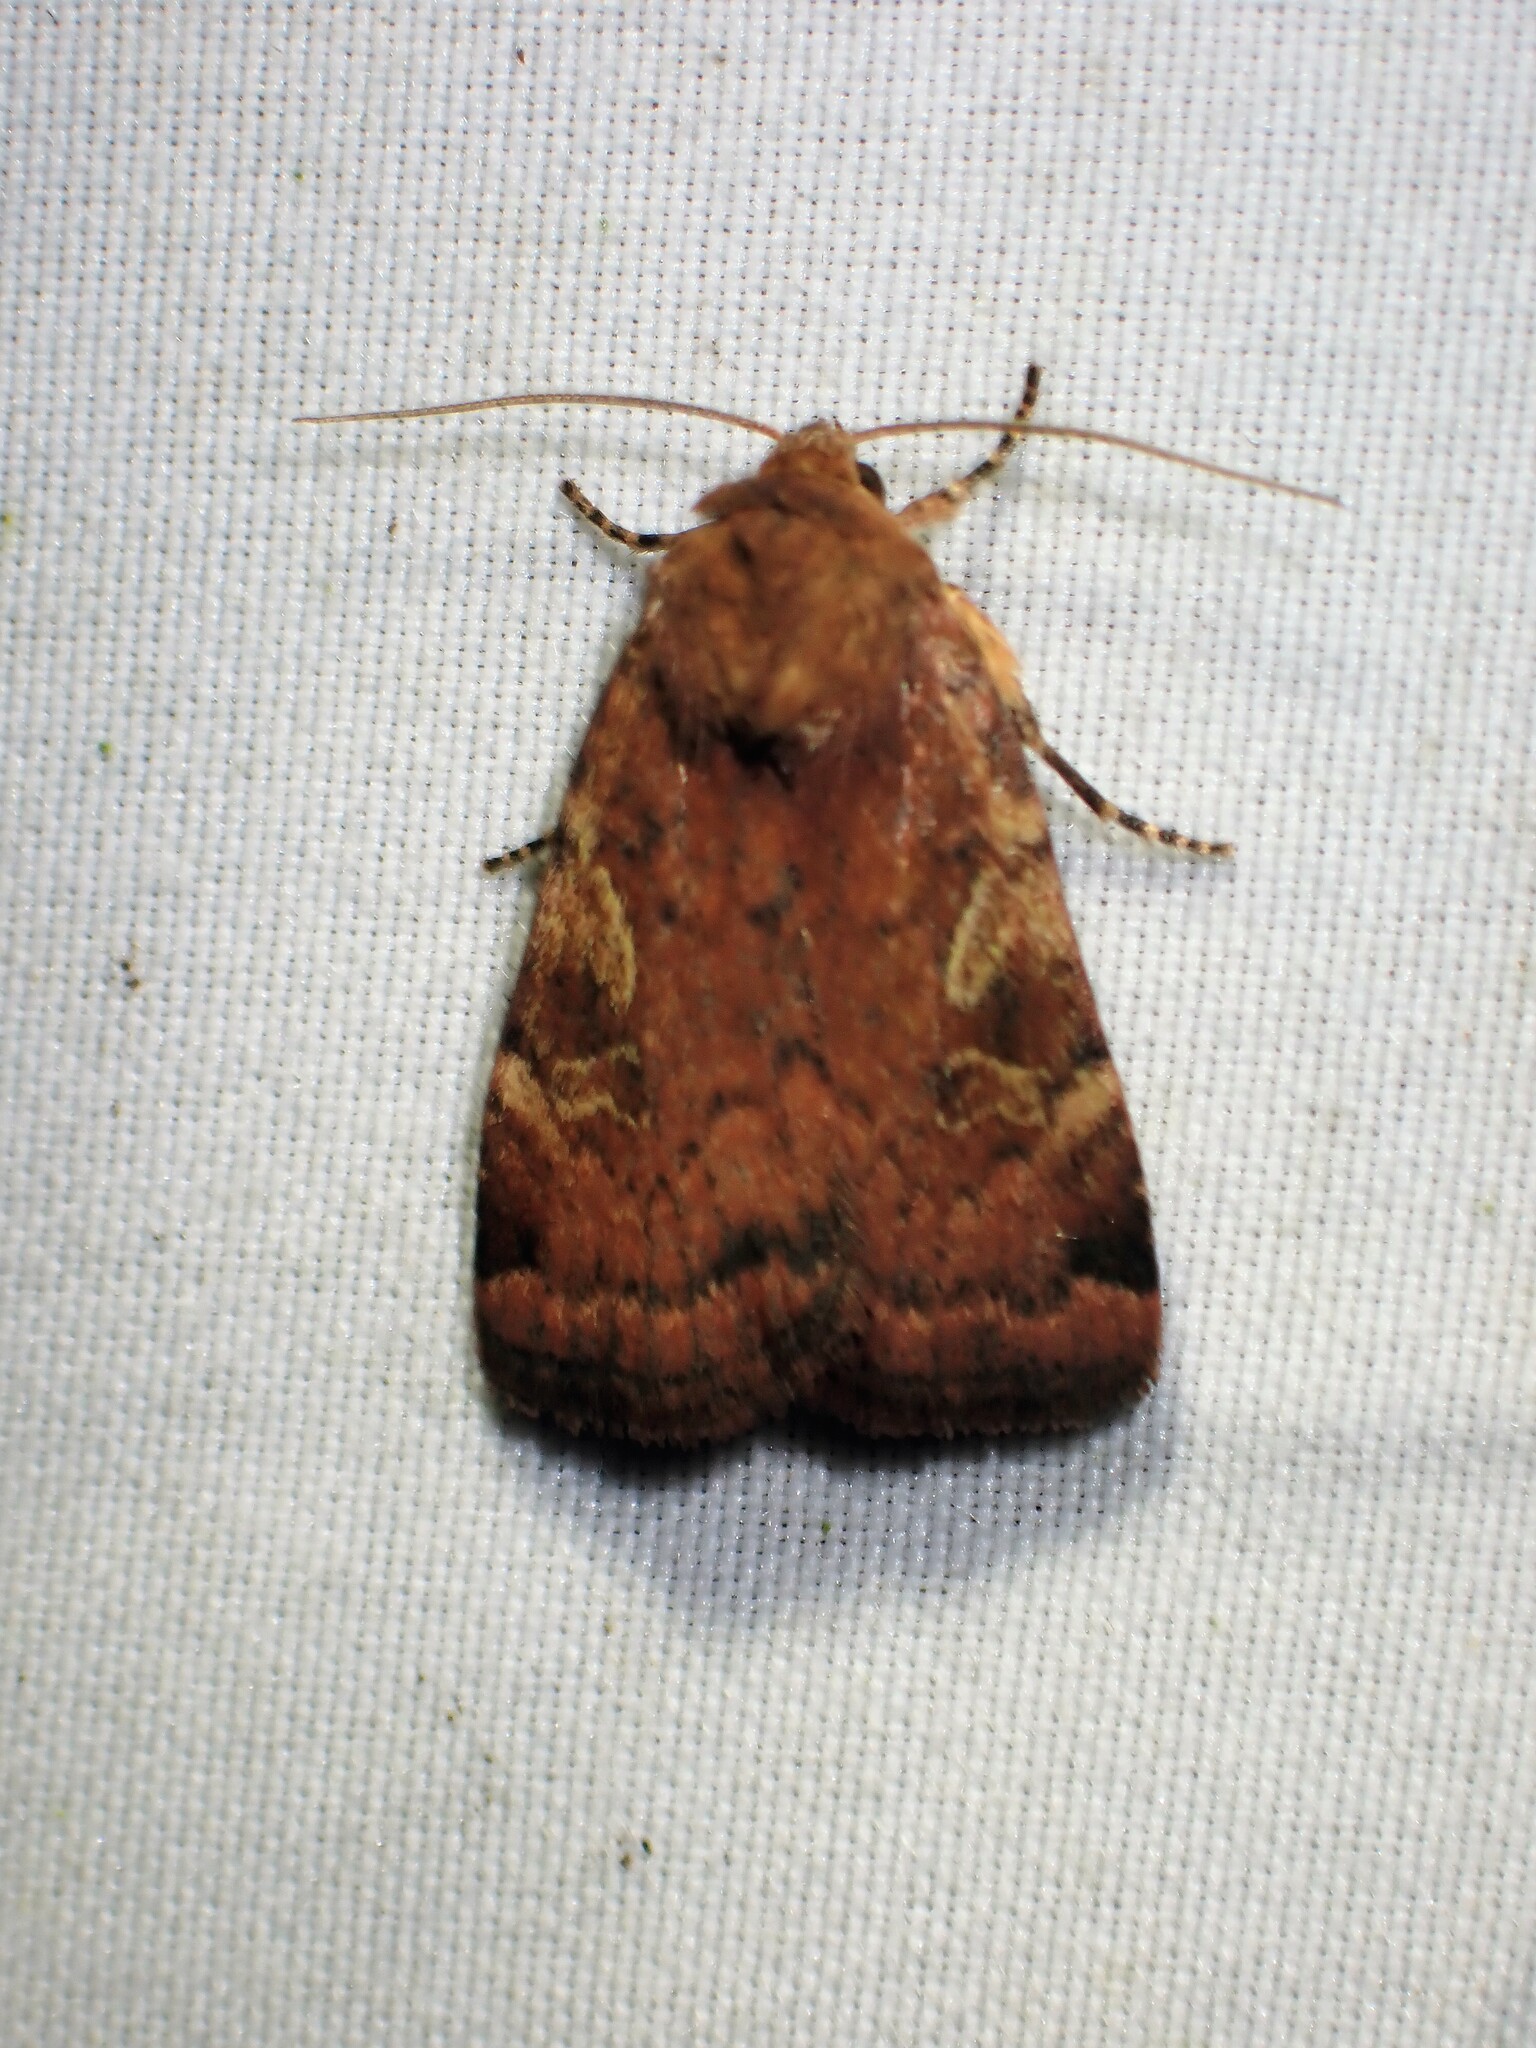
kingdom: Animalia
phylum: Arthropoda
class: Insecta
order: Lepidoptera
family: Noctuidae
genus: Cryptocala
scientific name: Cryptocala acadiensis
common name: Catocaline dart
